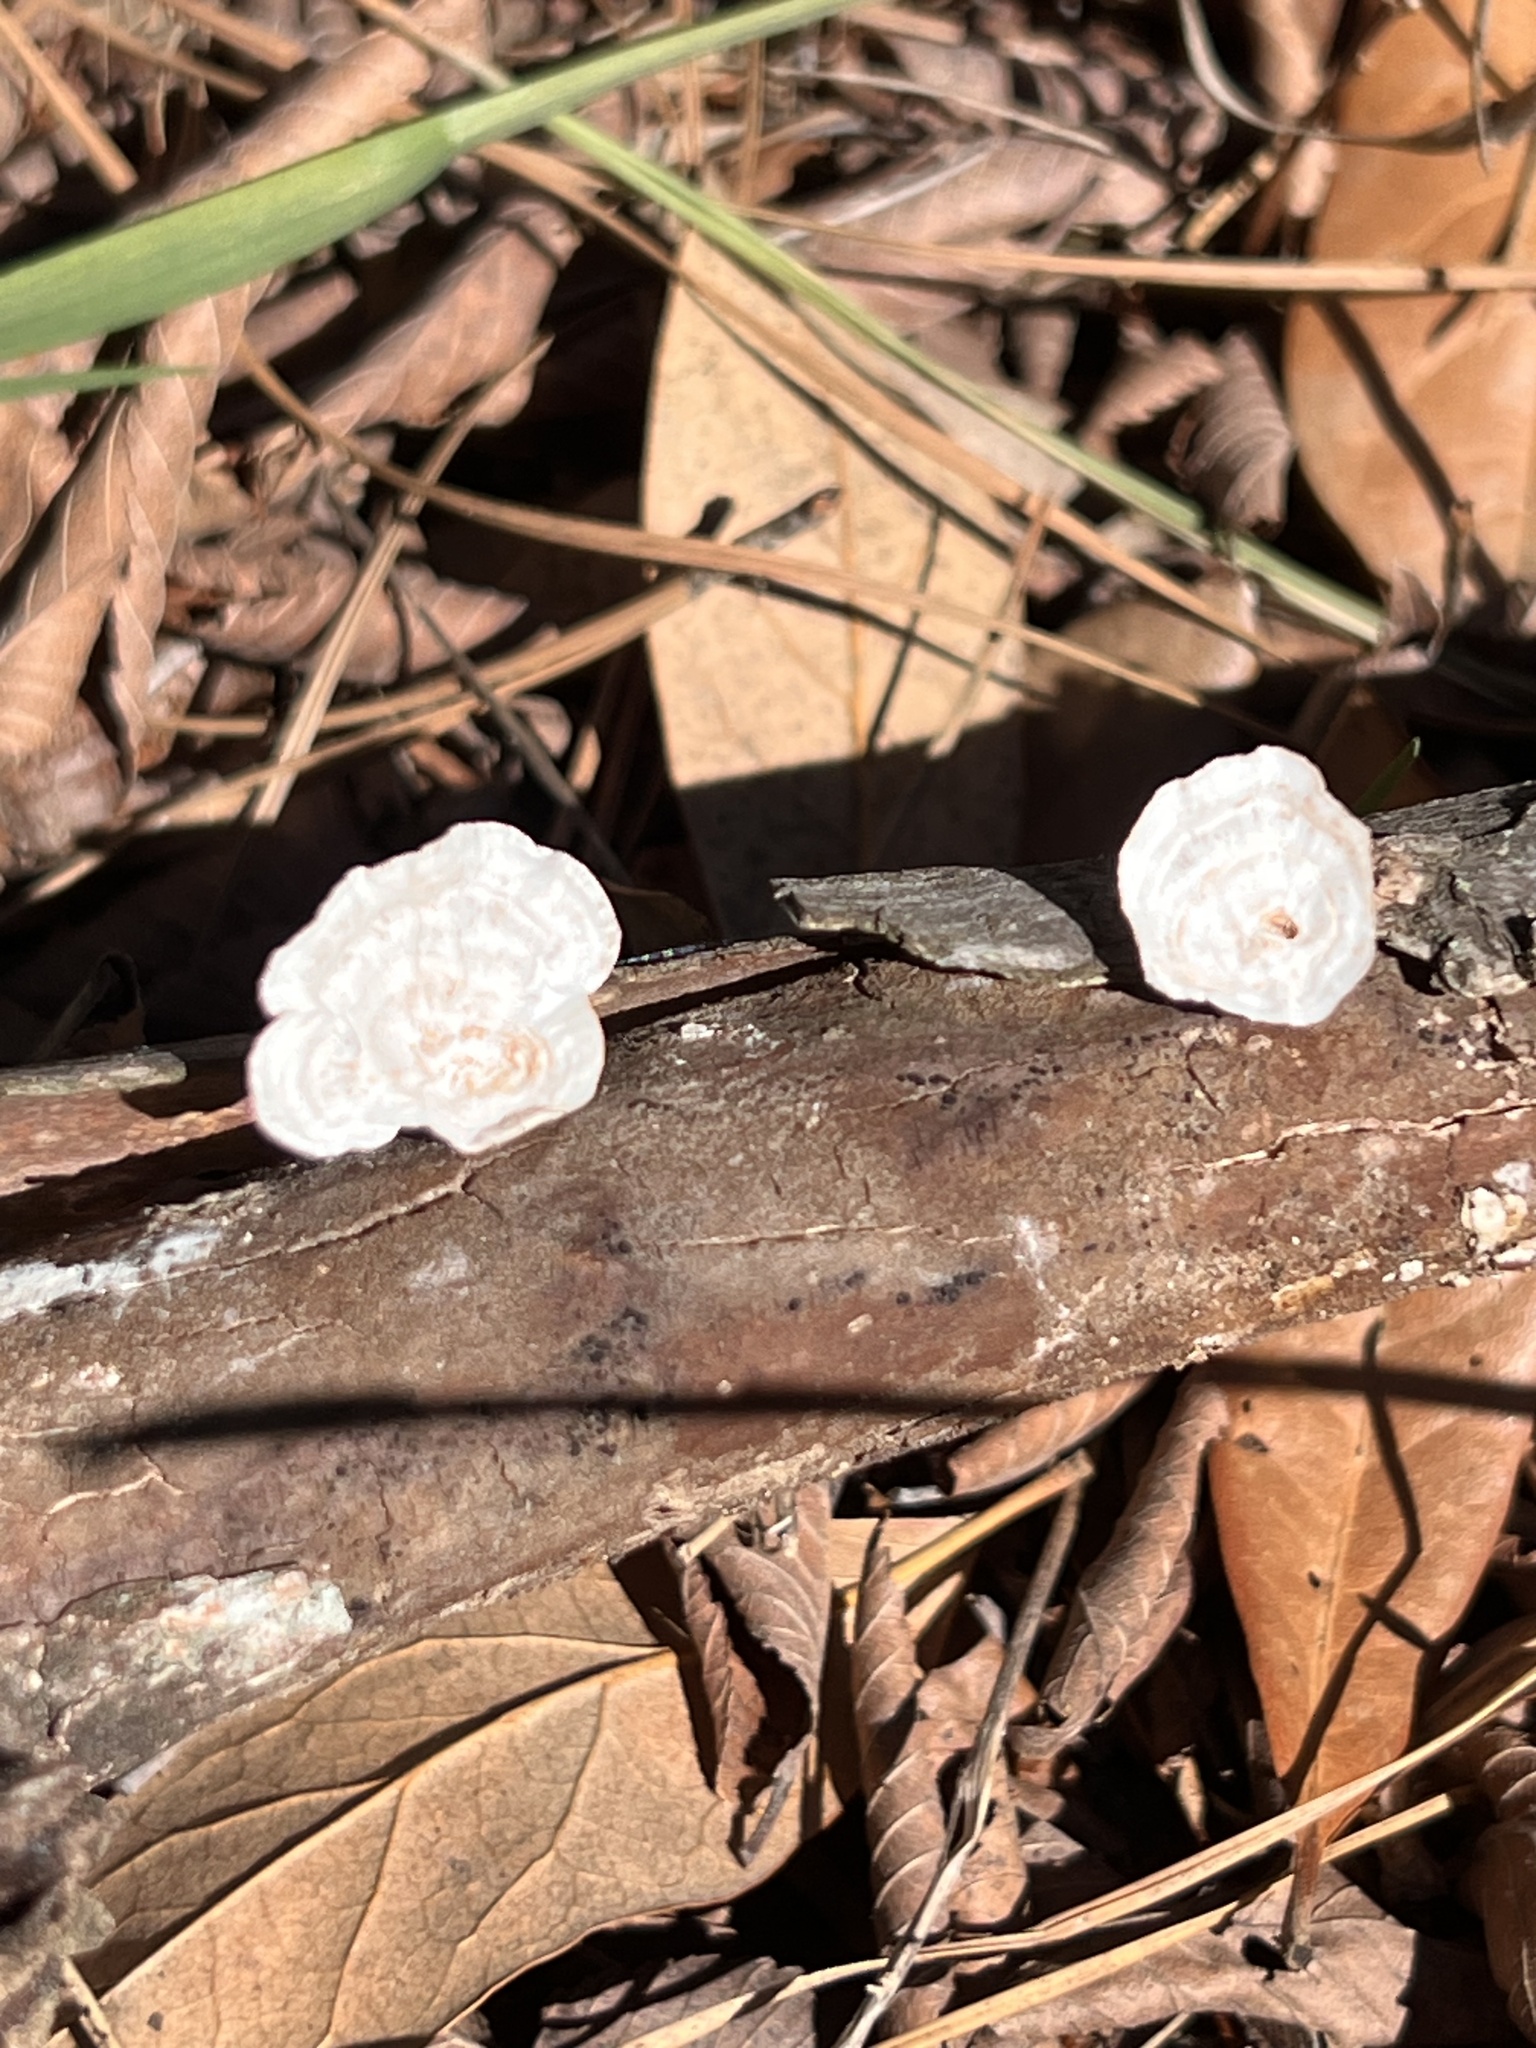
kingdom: Fungi
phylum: Basidiomycota
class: Agaricomycetes
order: Polyporales
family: Polyporaceae
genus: Poronidulus
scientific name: Poronidulus conchifer
